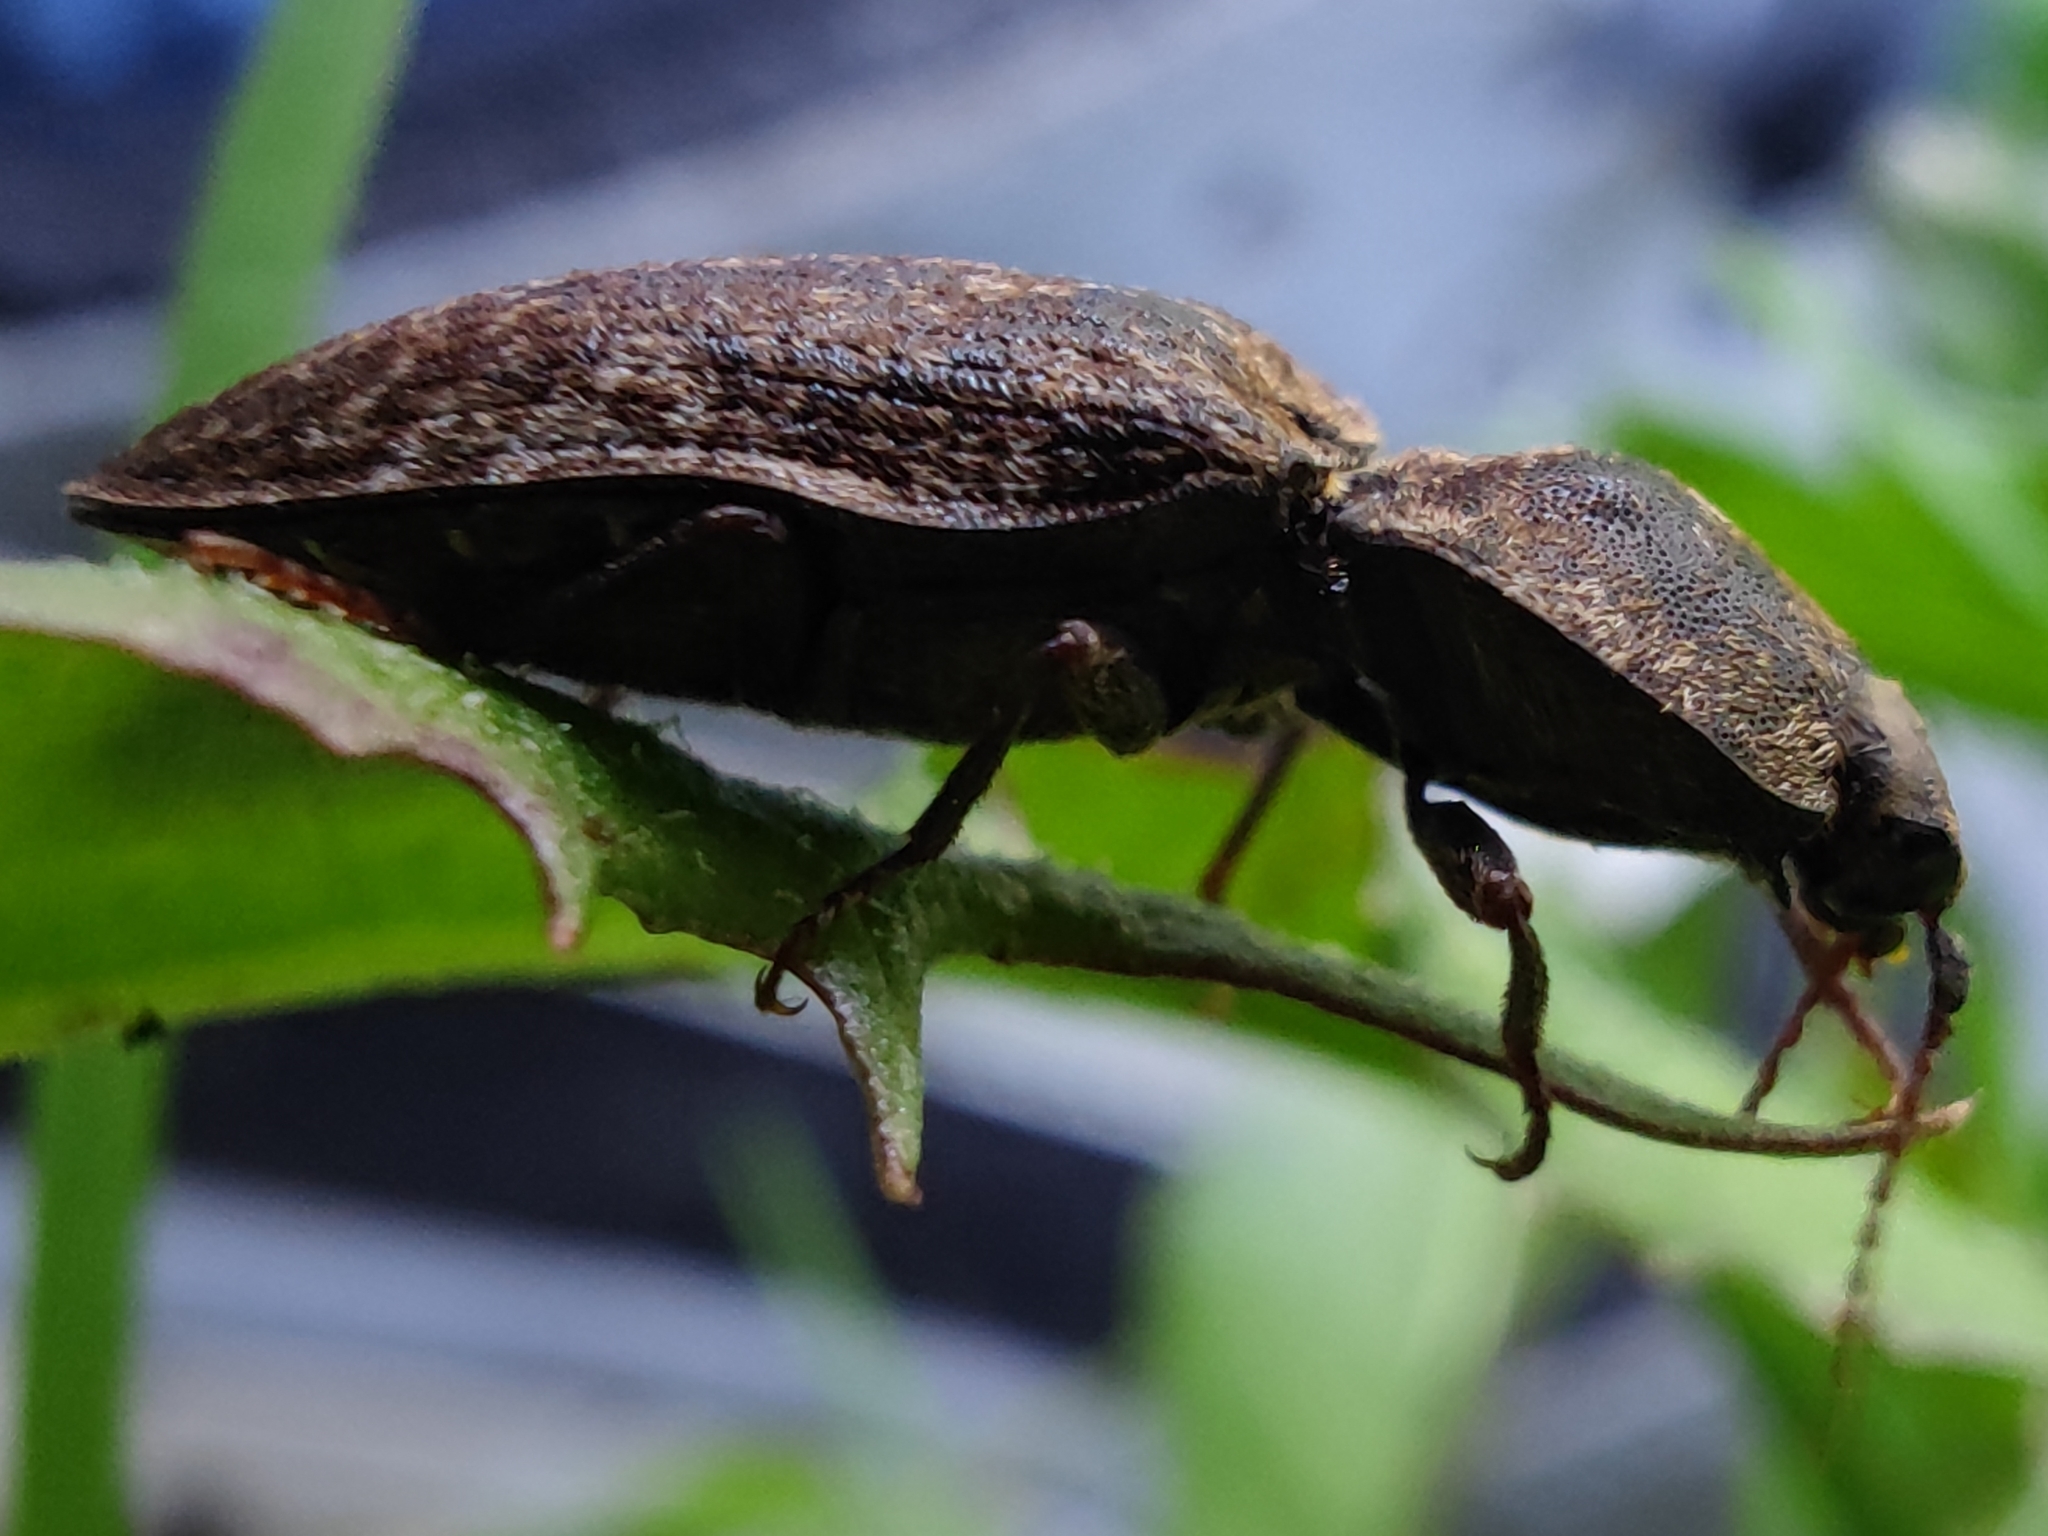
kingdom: Animalia
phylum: Arthropoda
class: Insecta
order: Coleoptera
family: Elateridae
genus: Agrypnus
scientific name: Agrypnus murinus
